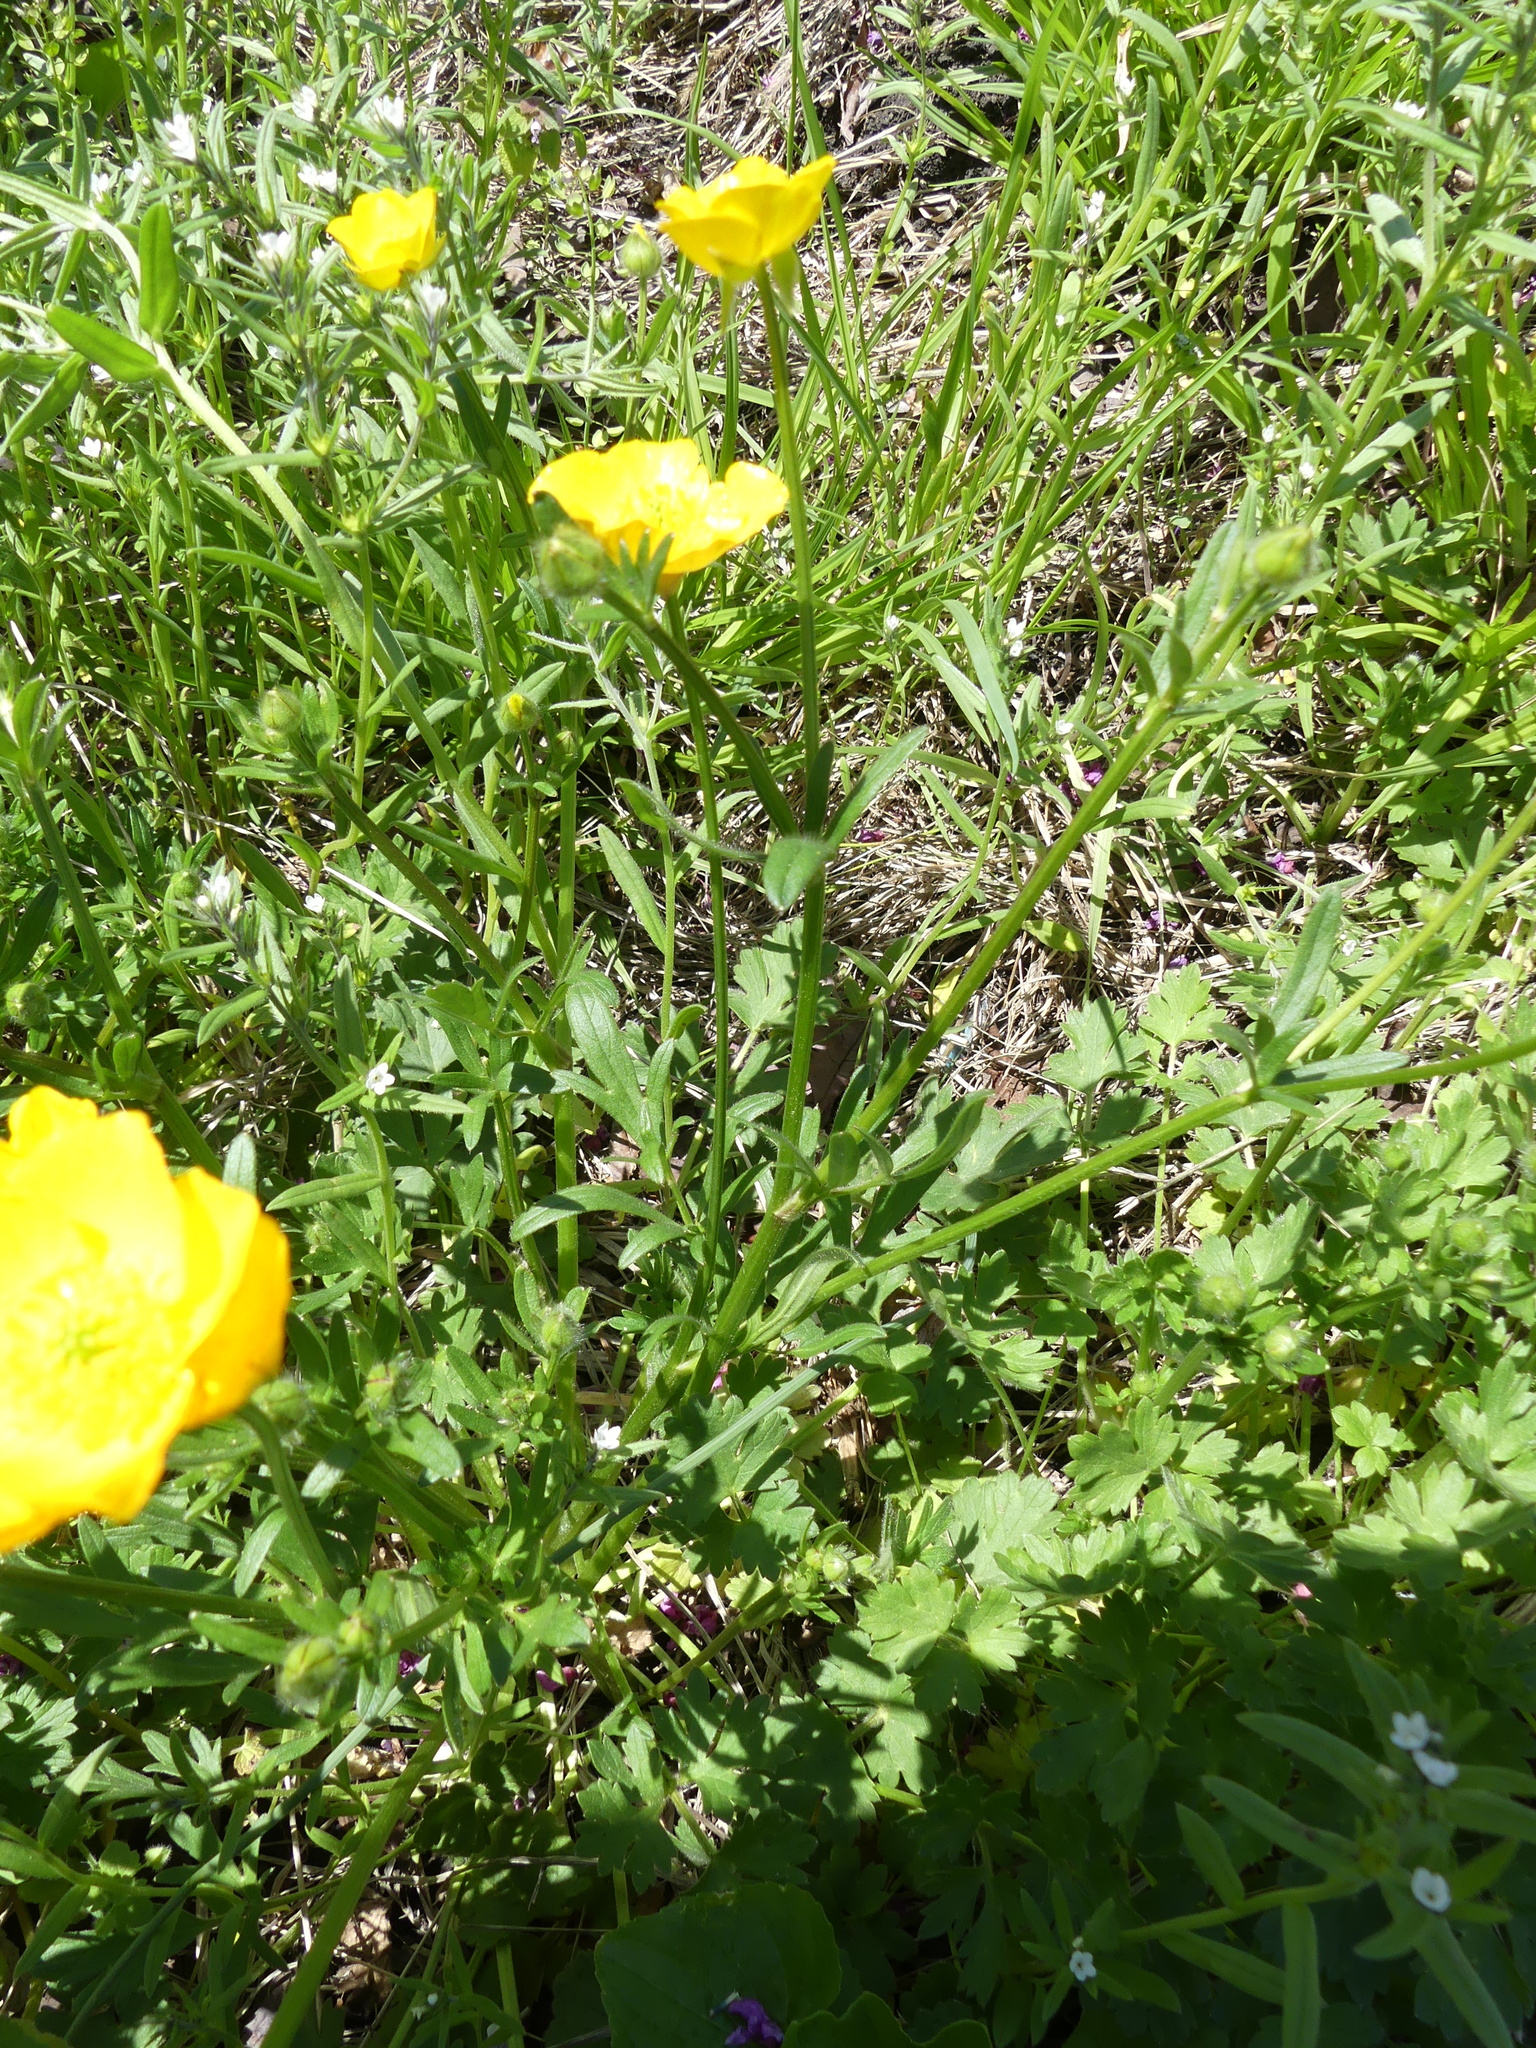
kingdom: Plantae
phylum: Tracheophyta
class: Magnoliopsida
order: Ranunculales
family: Ranunculaceae
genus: Ranunculus
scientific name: Ranunculus bulbosus
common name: Bulbous buttercup
